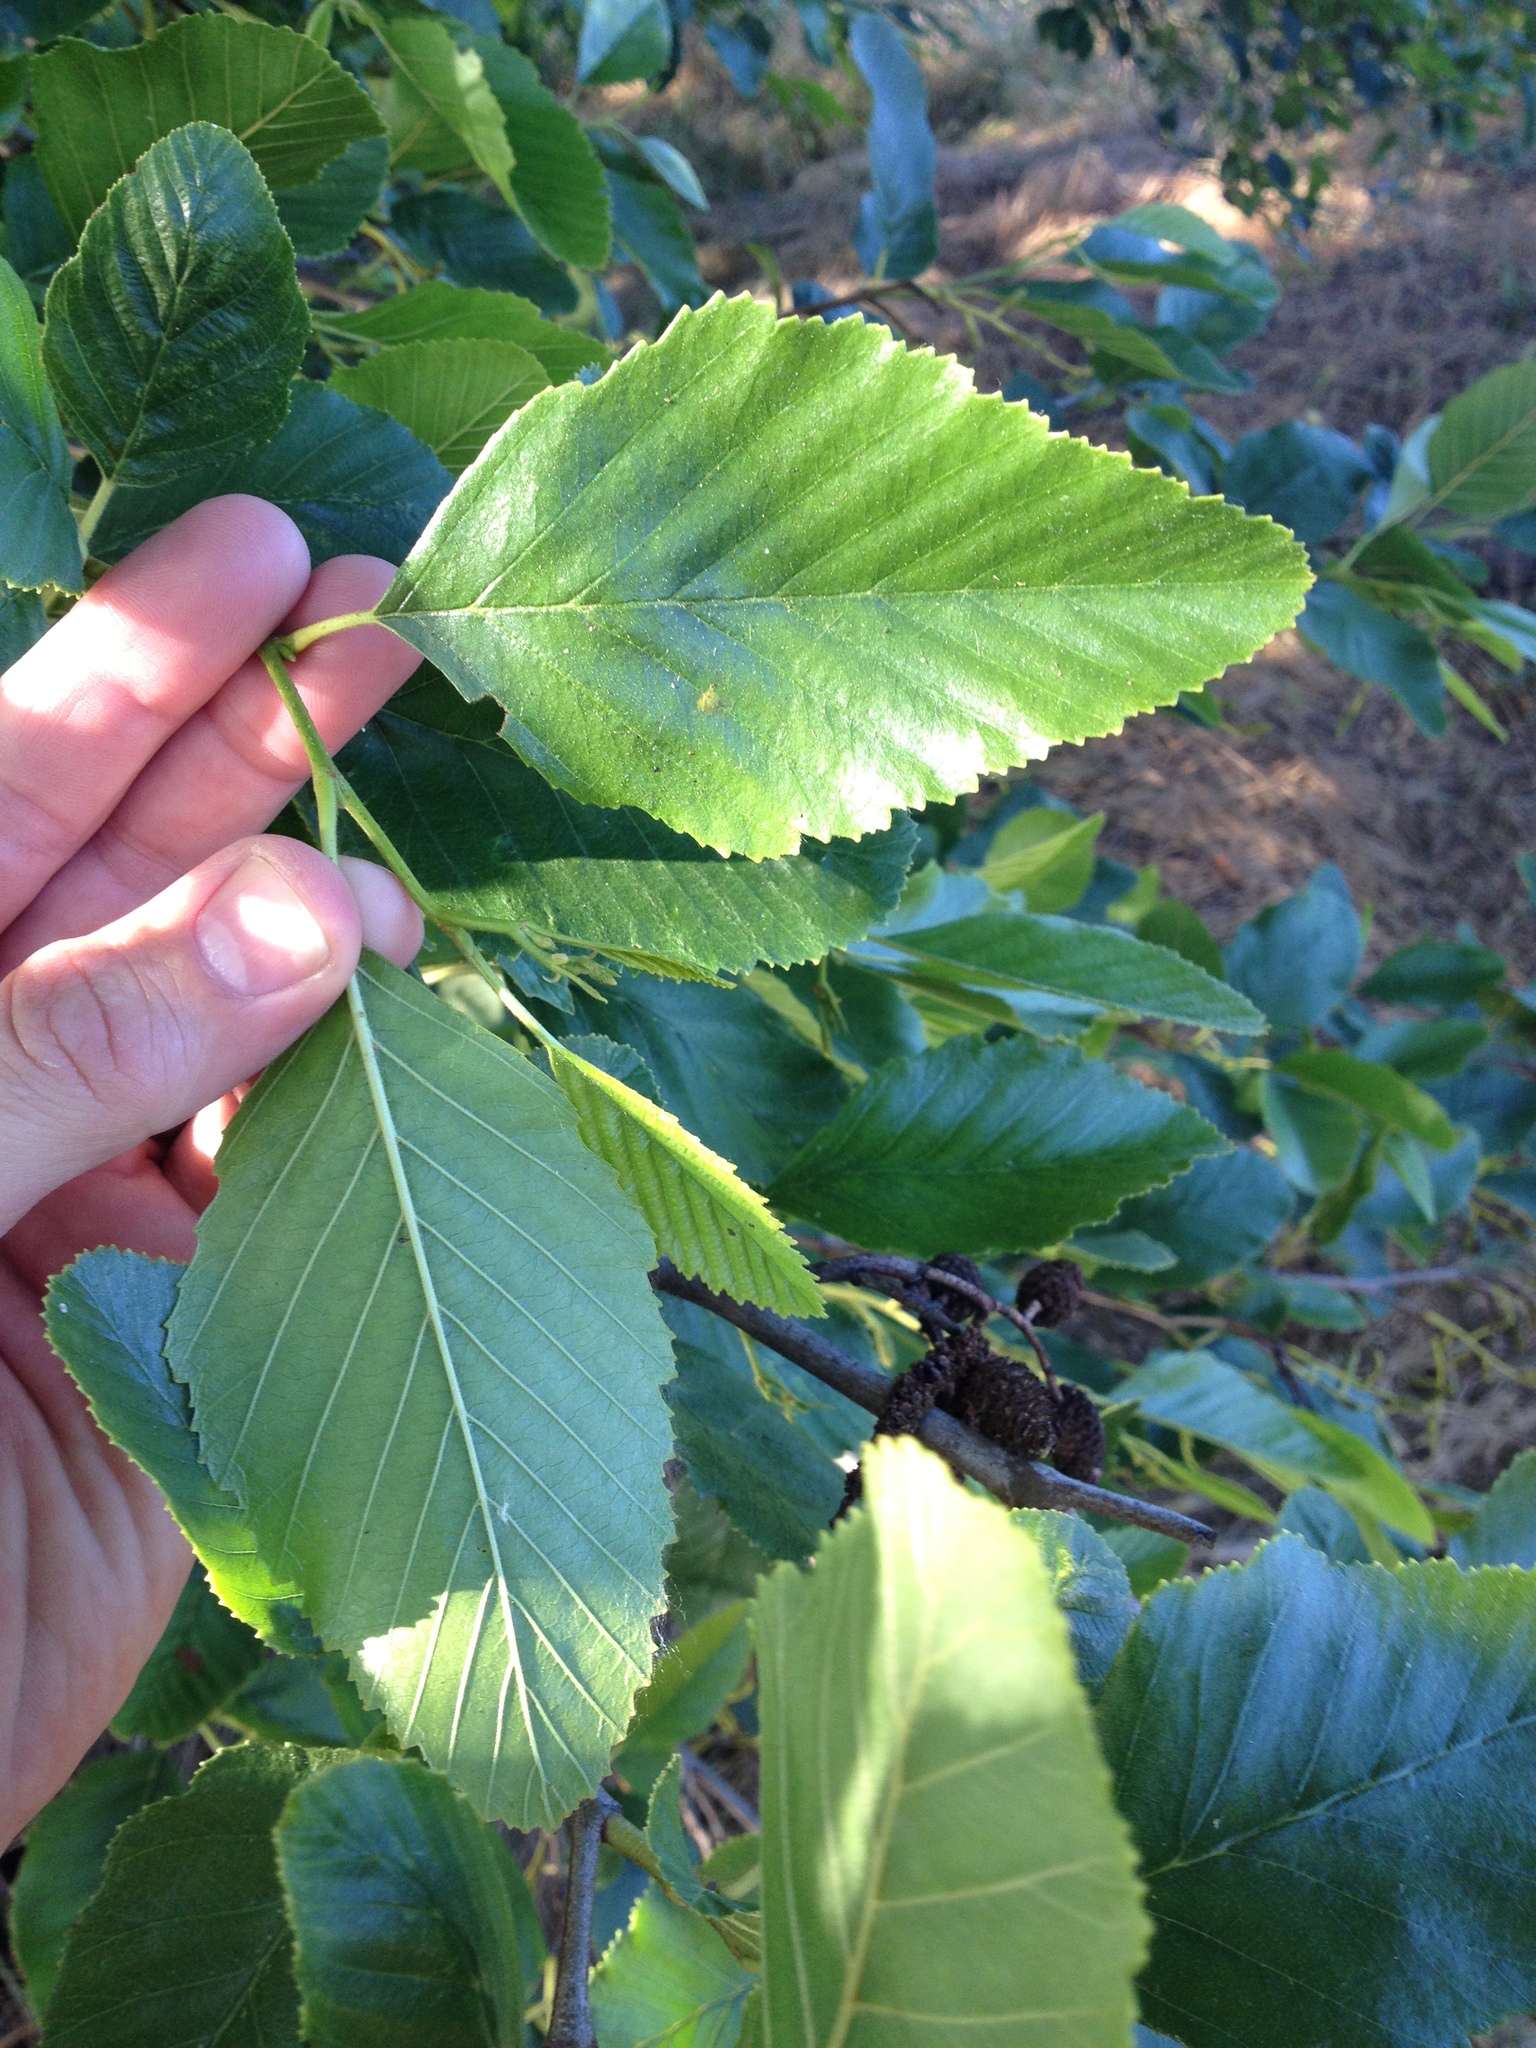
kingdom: Plantae
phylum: Tracheophyta
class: Magnoliopsida
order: Fagales
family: Betulaceae
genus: Alnus
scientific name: Alnus rhombifolia
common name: California alder
